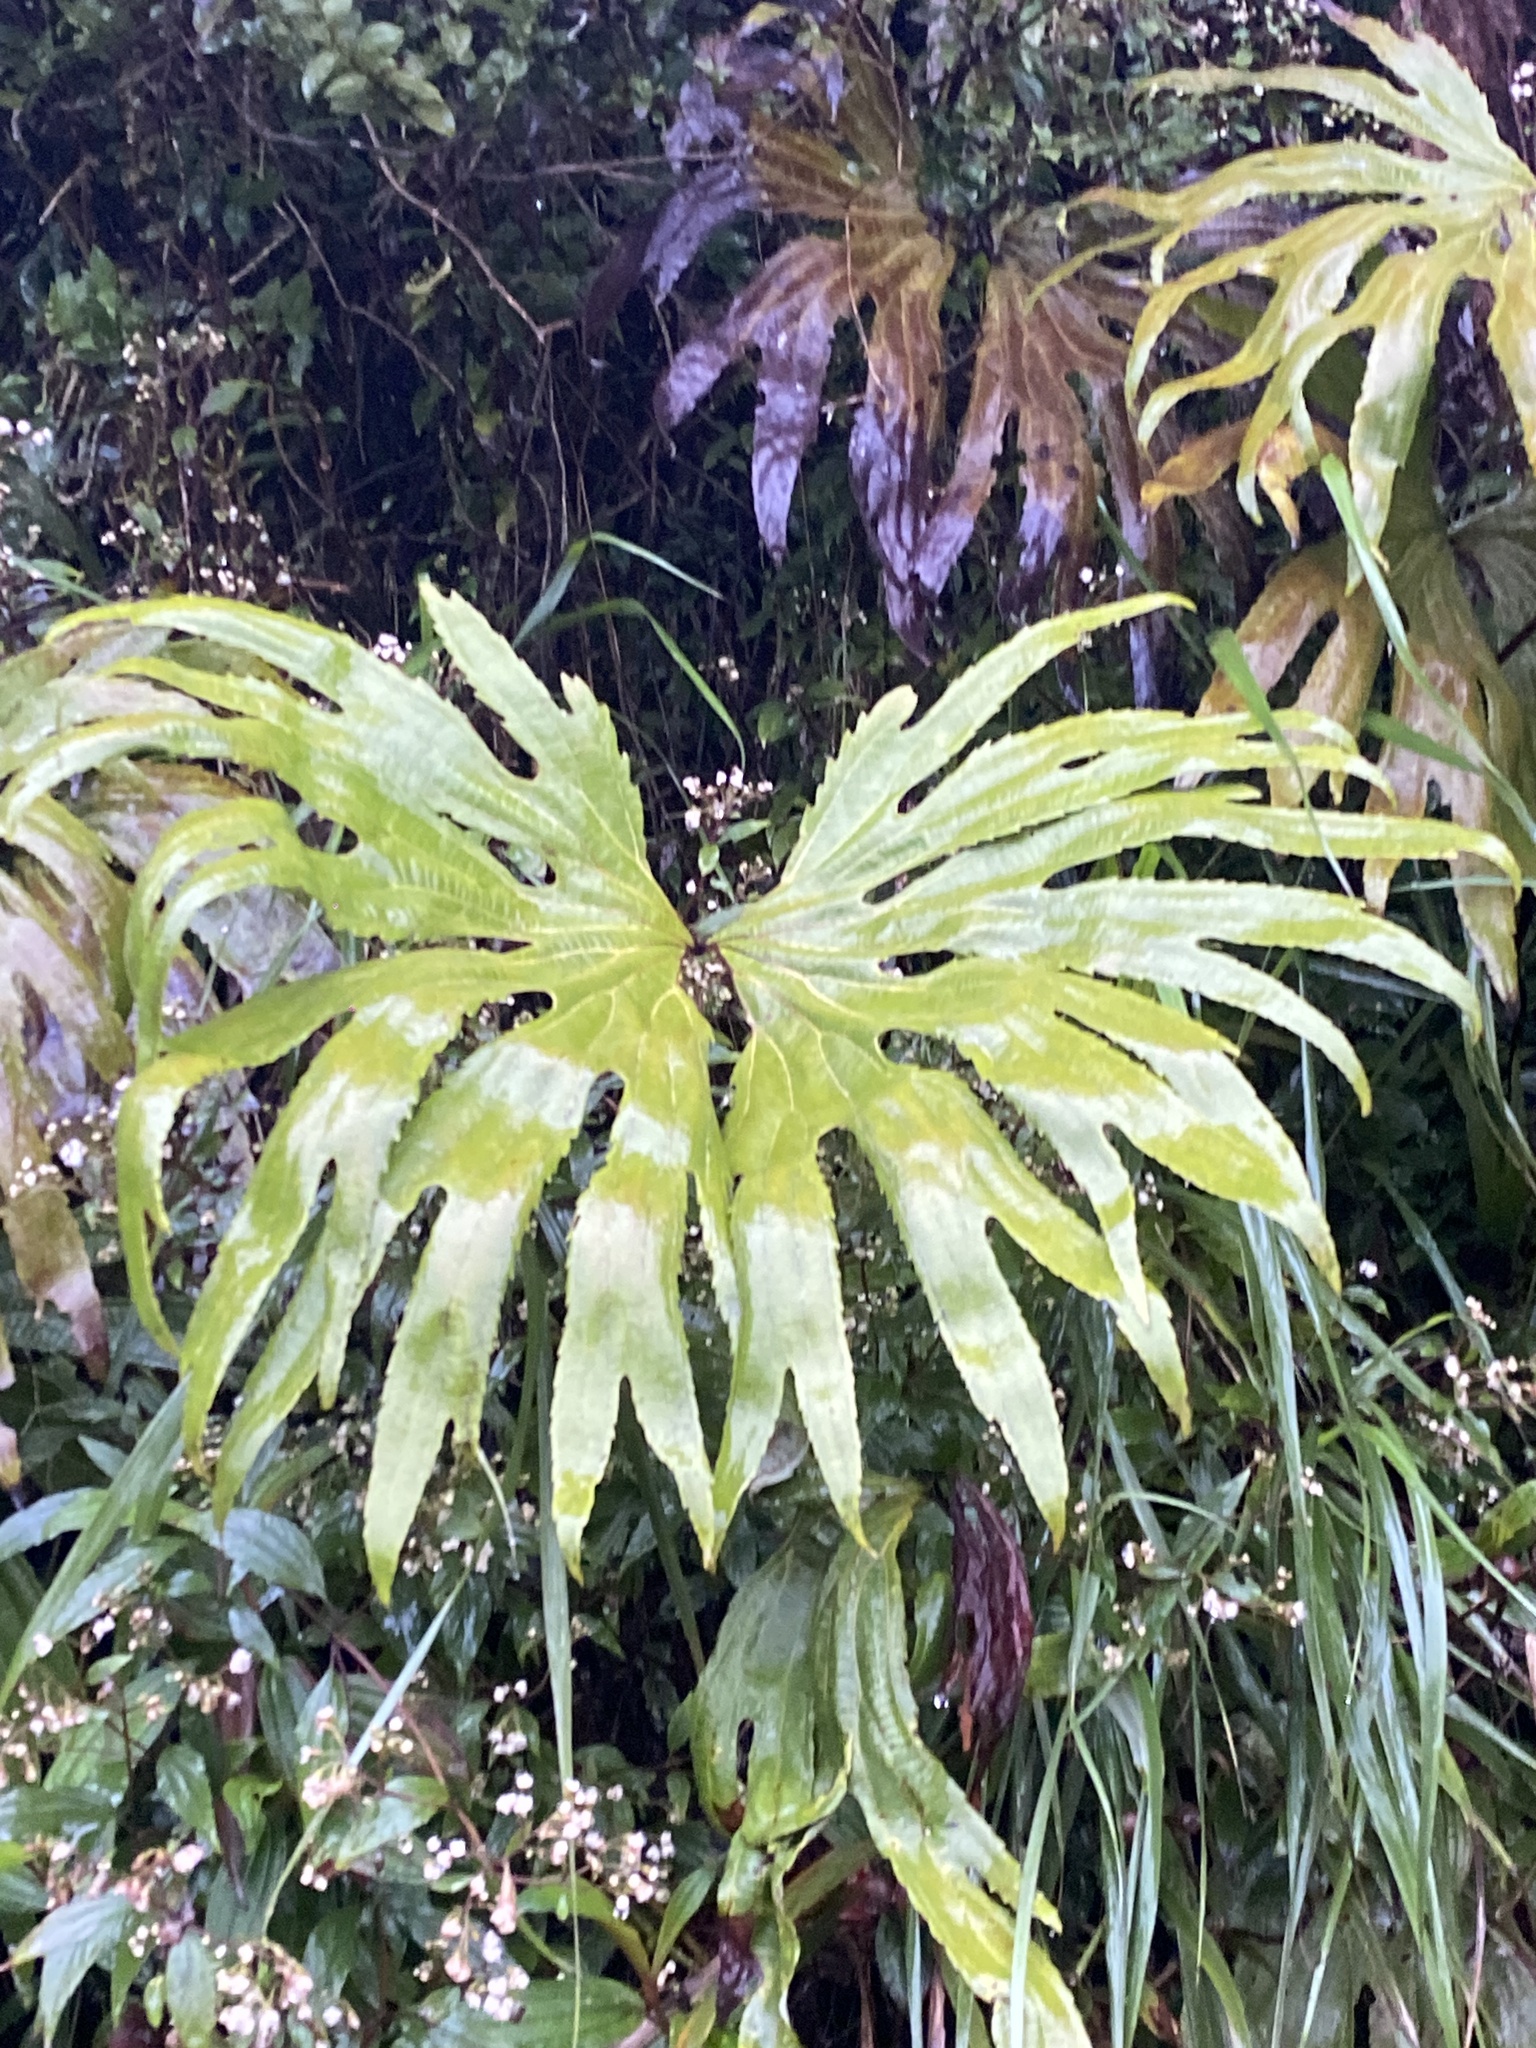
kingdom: Plantae
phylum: Tracheophyta
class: Polypodiopsida
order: Gleicheniales
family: Dipteridaceae
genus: Dipteris
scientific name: Dipteris conjugata
